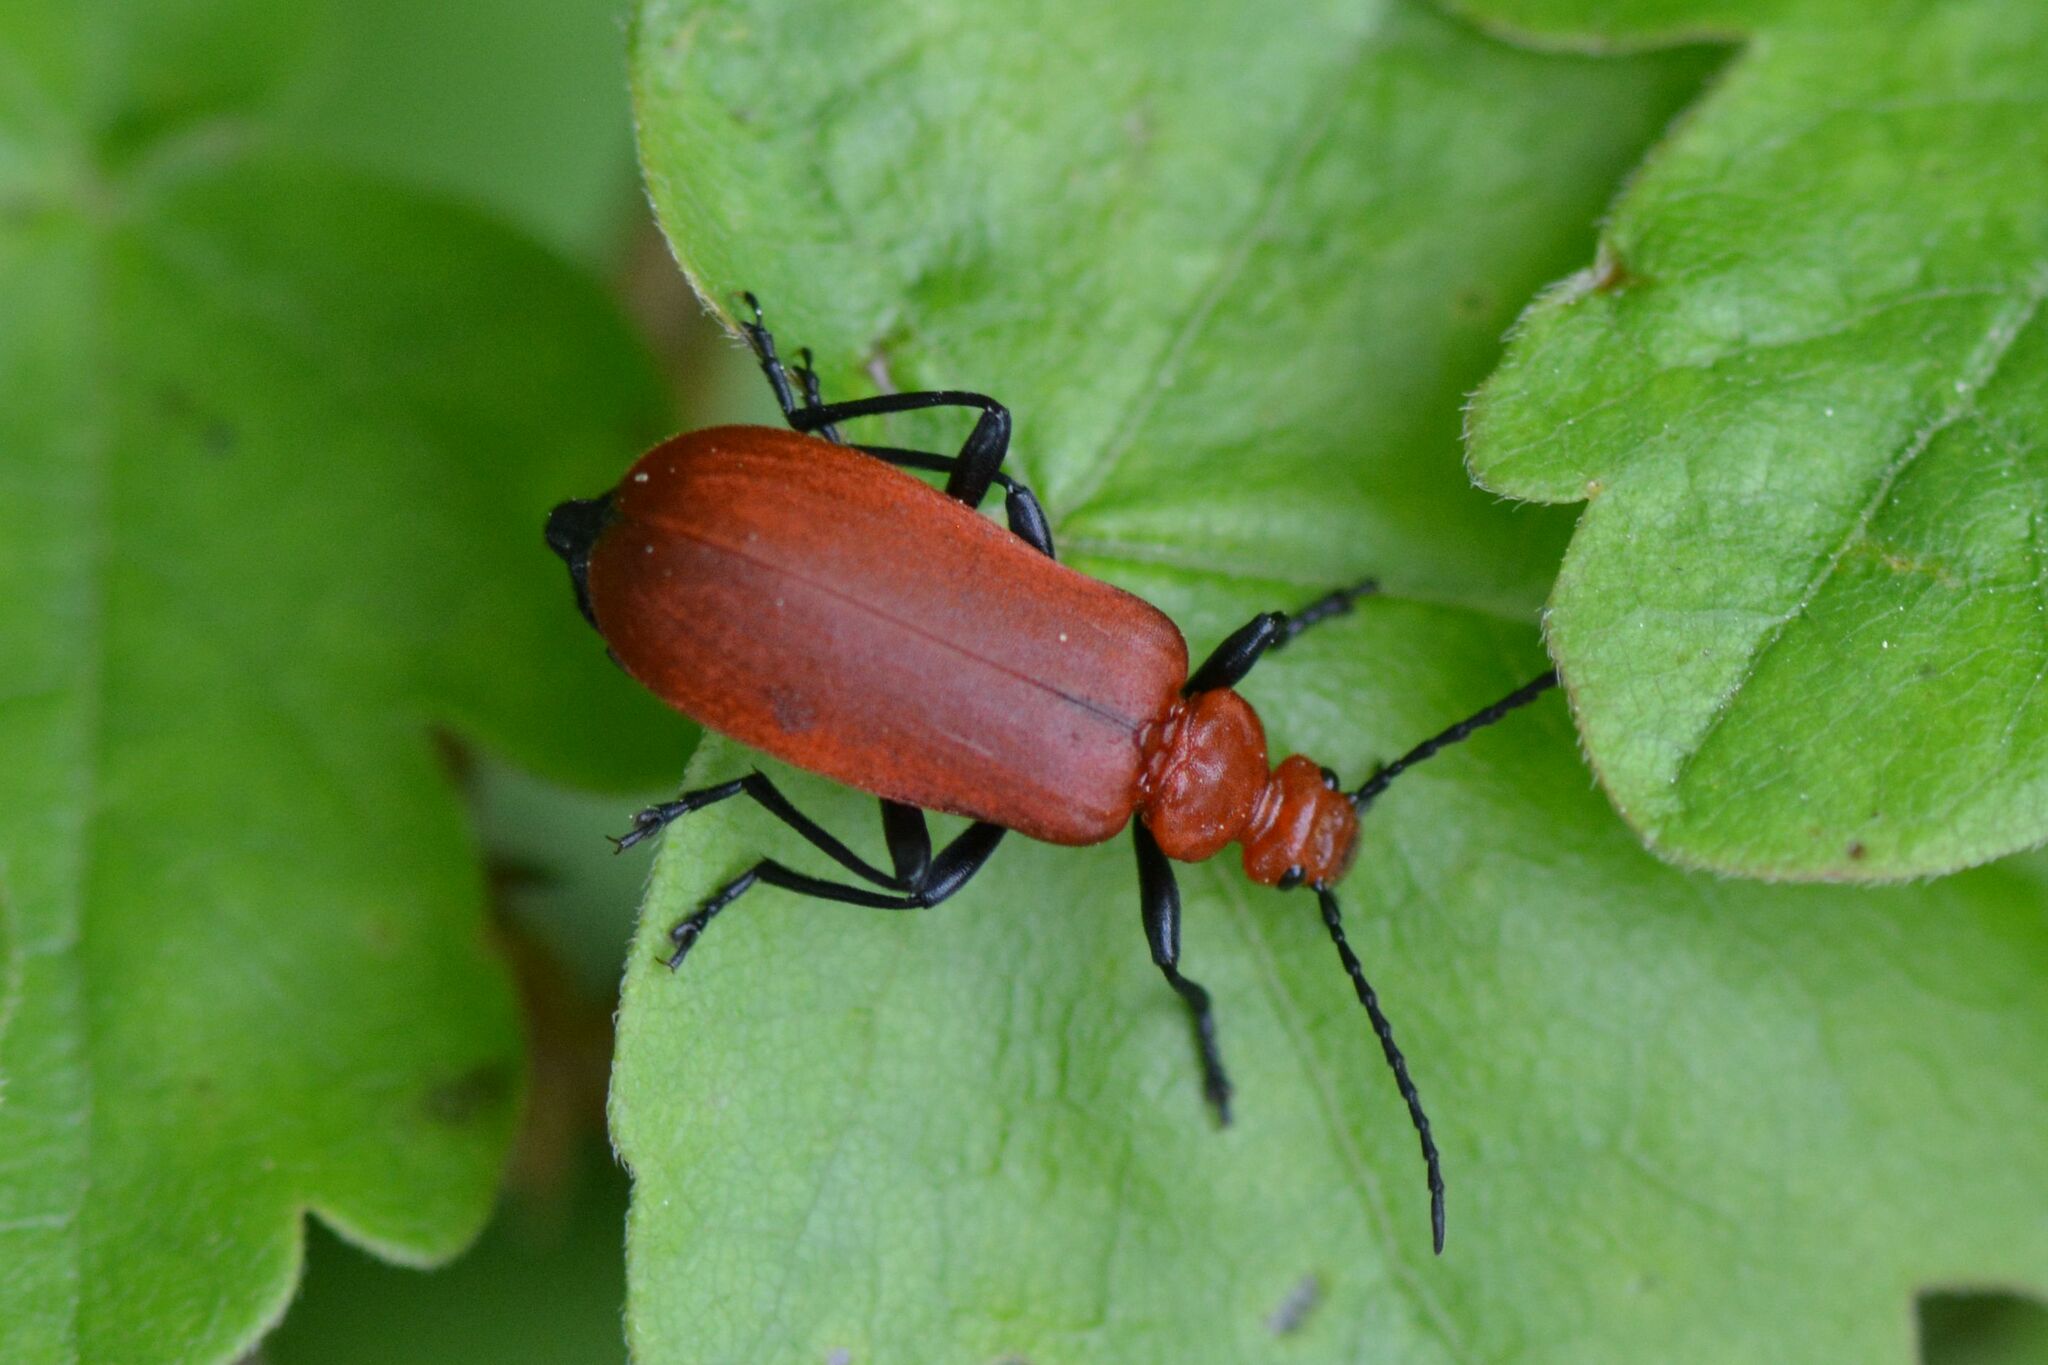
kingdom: Animalia
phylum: Arthropoda
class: Insecta
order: Coleoptera
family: Pyrochroidae
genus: Pyrochroa
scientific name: Pyrochroa serraticornis
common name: Red-headed cardinal beetle
